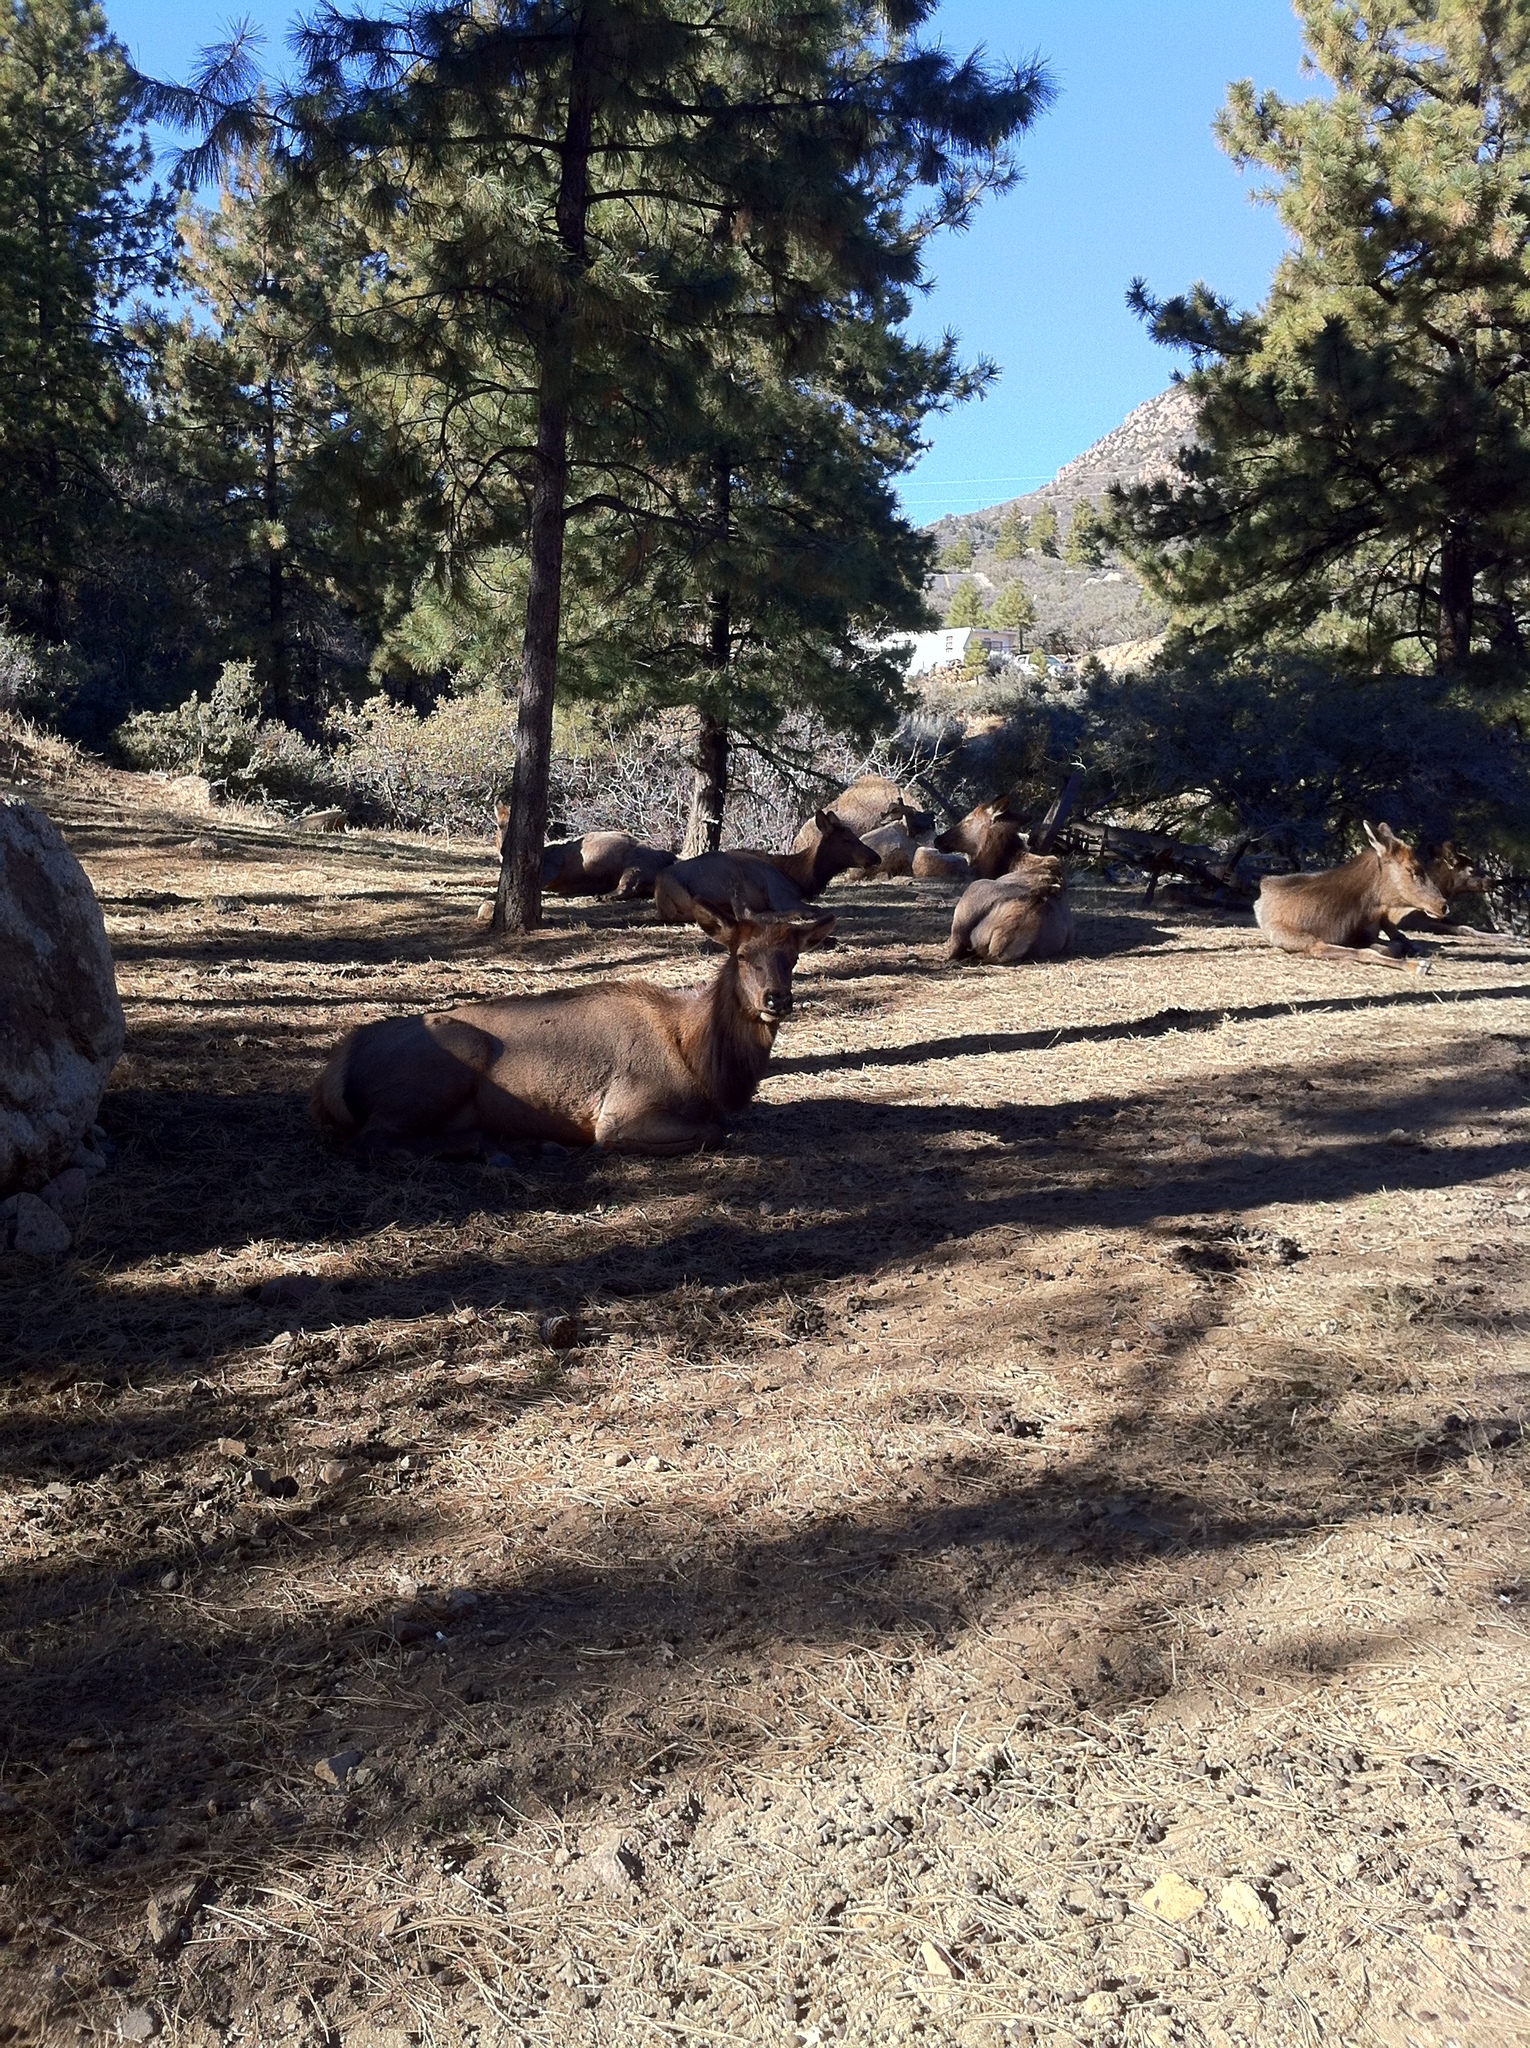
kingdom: Animalia
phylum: Chordata
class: Mammalia
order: Artiodactyla
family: Cervidae
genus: Cervus
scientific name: Cervus elaphus
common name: Red deer
